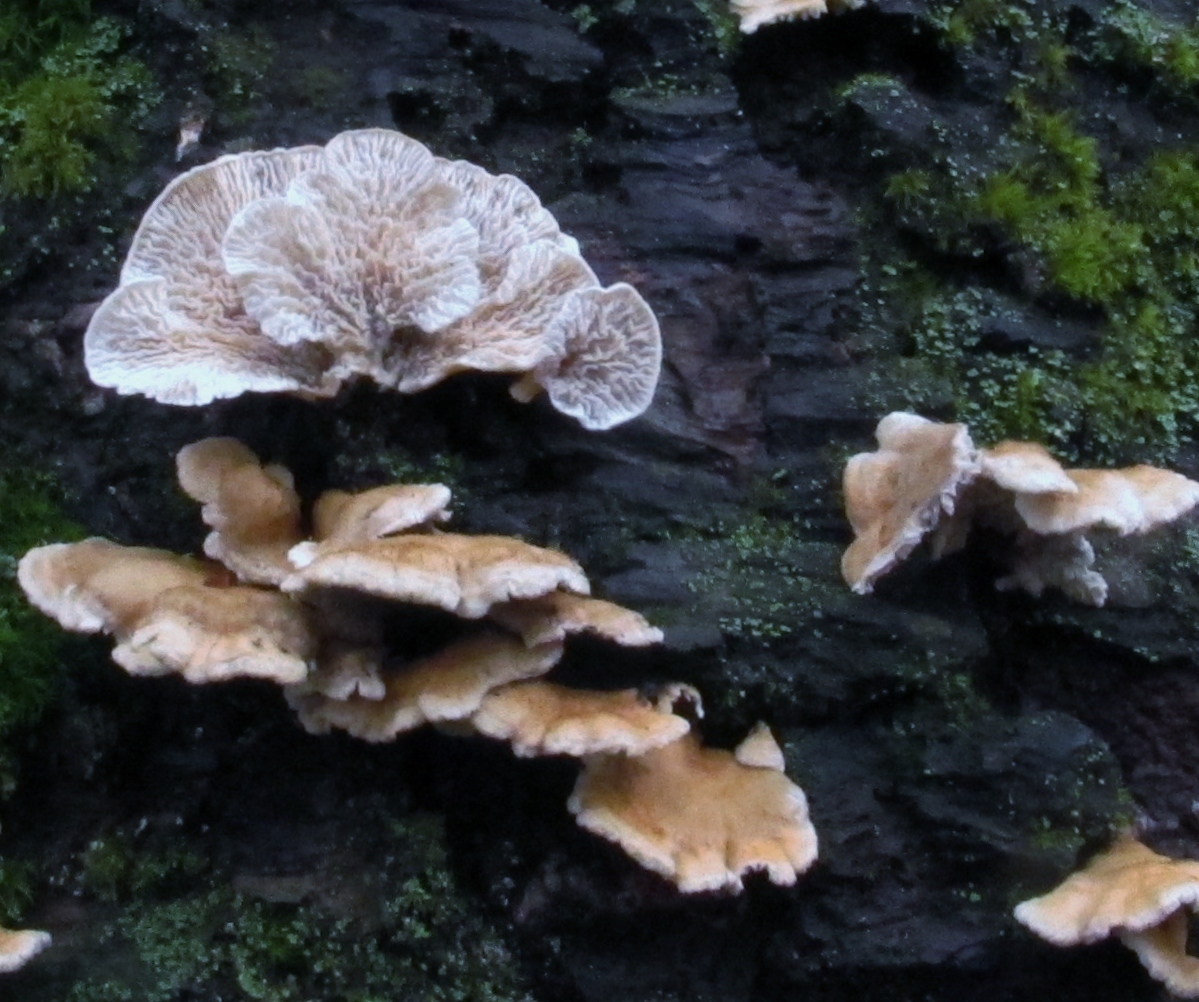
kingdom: Fungi
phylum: Basidiomycota
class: Agaricomycetes
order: Amylocorticiales
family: Amylocorticiaceae
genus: Plicaturopsis
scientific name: Plicaturopsis crispa
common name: Crimped gill
